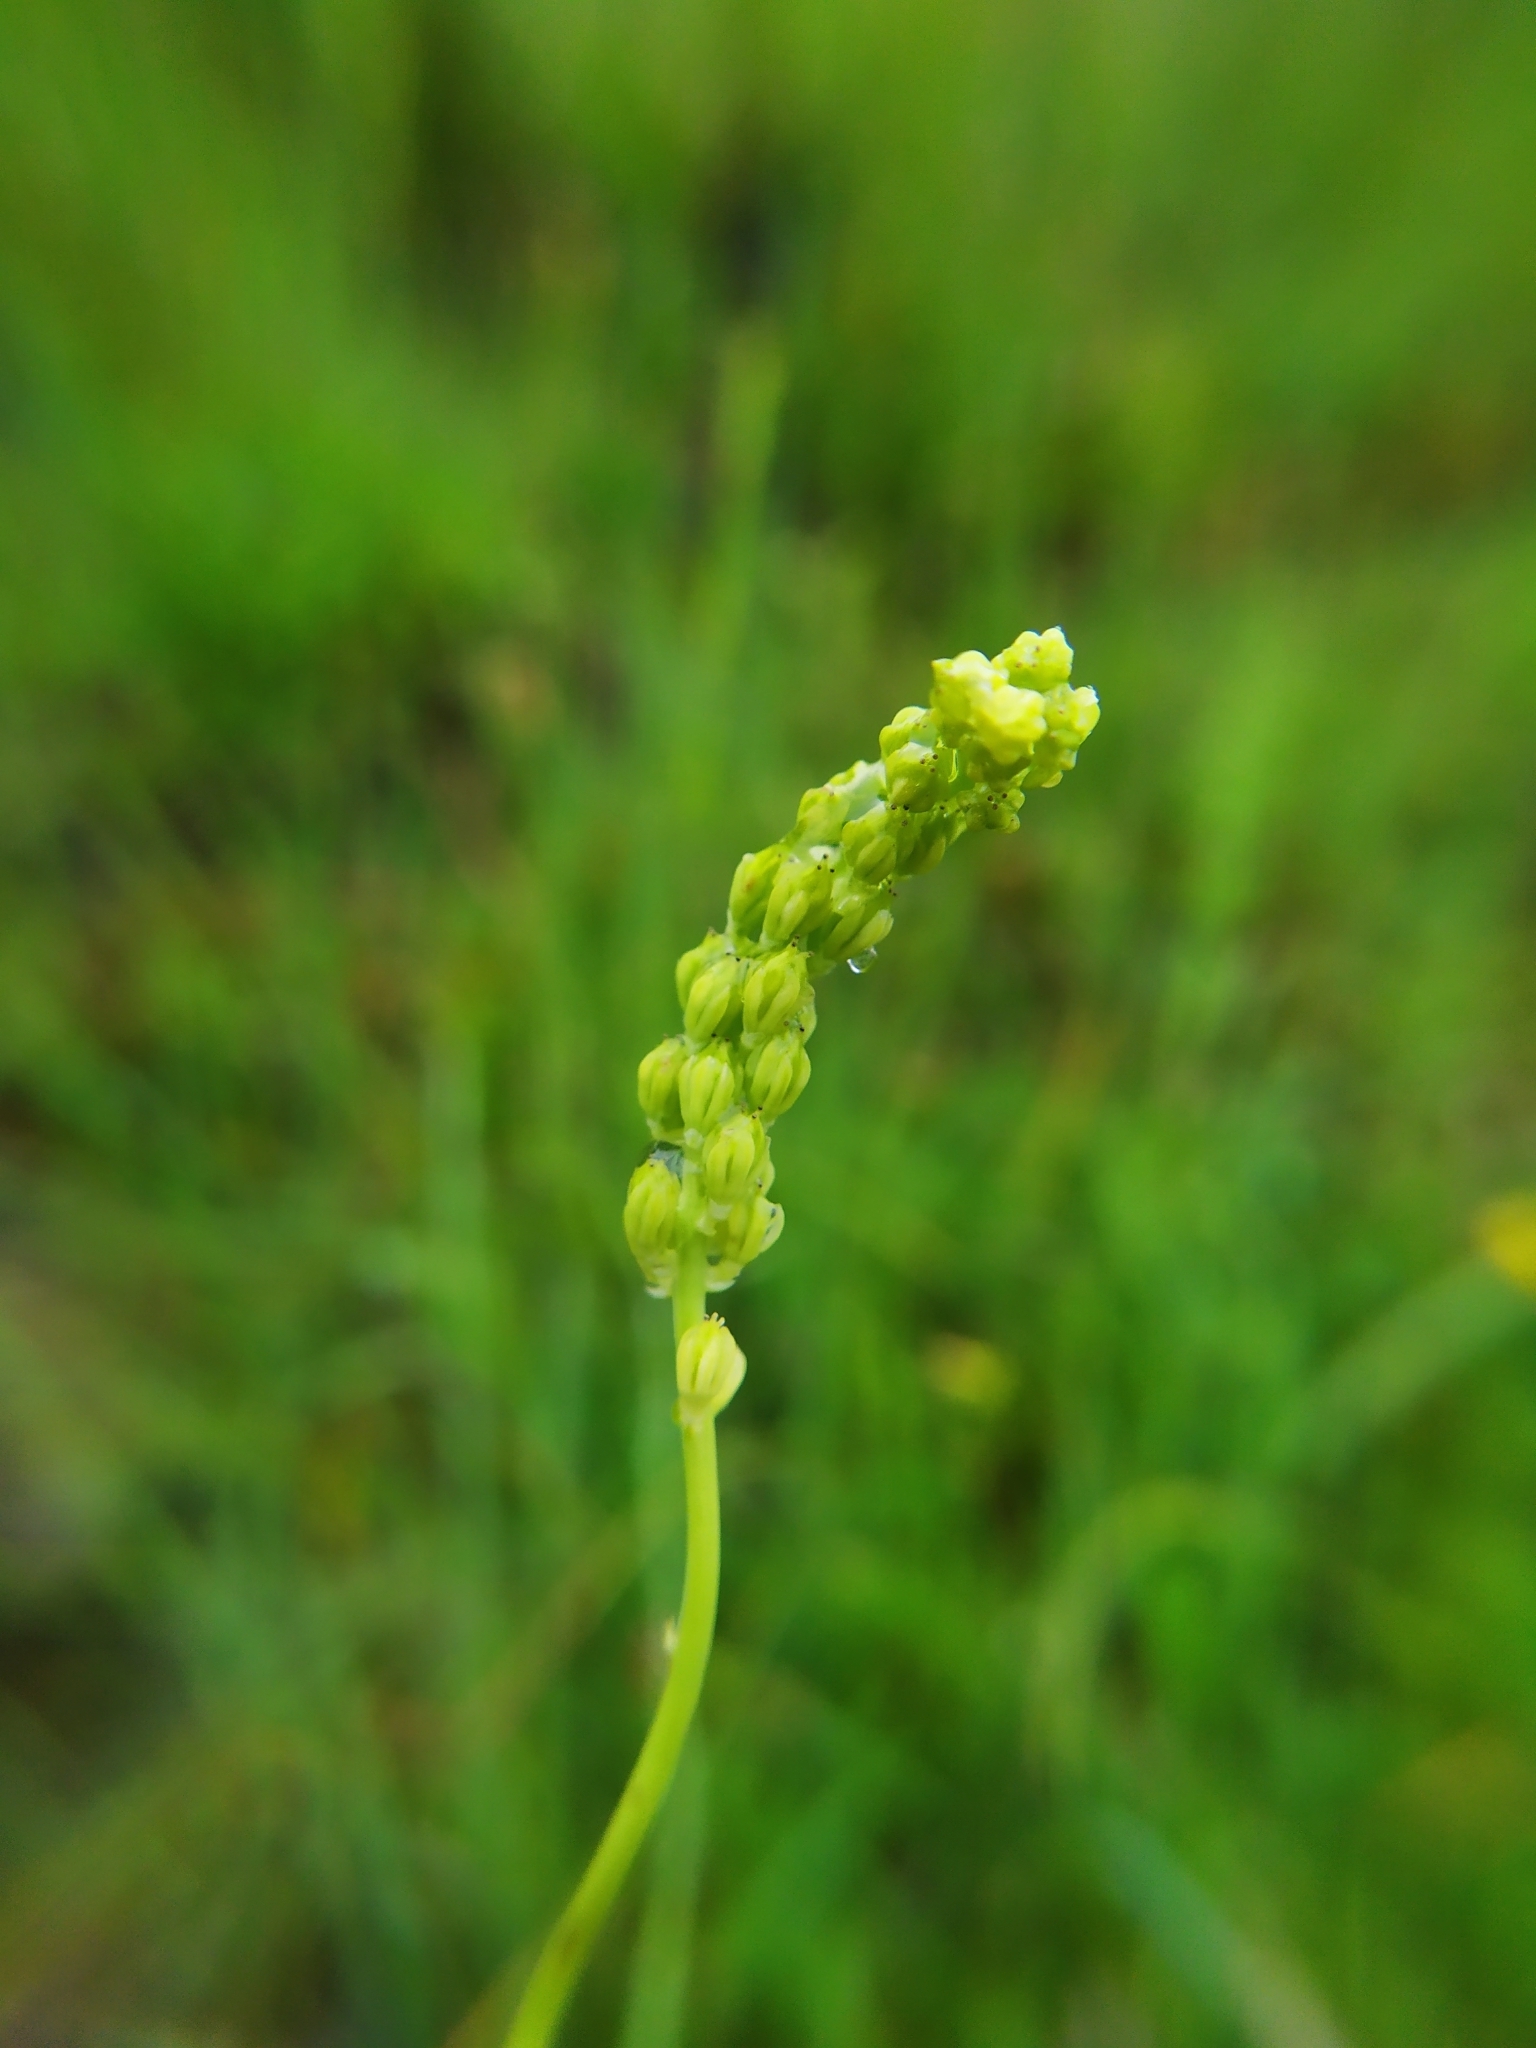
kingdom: Plantae
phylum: Tracheophyta
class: Liliopsida
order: Alismatales
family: Tofieldiaceae
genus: Tofieldia
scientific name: Tofieldia calyculata
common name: German-asphodel
